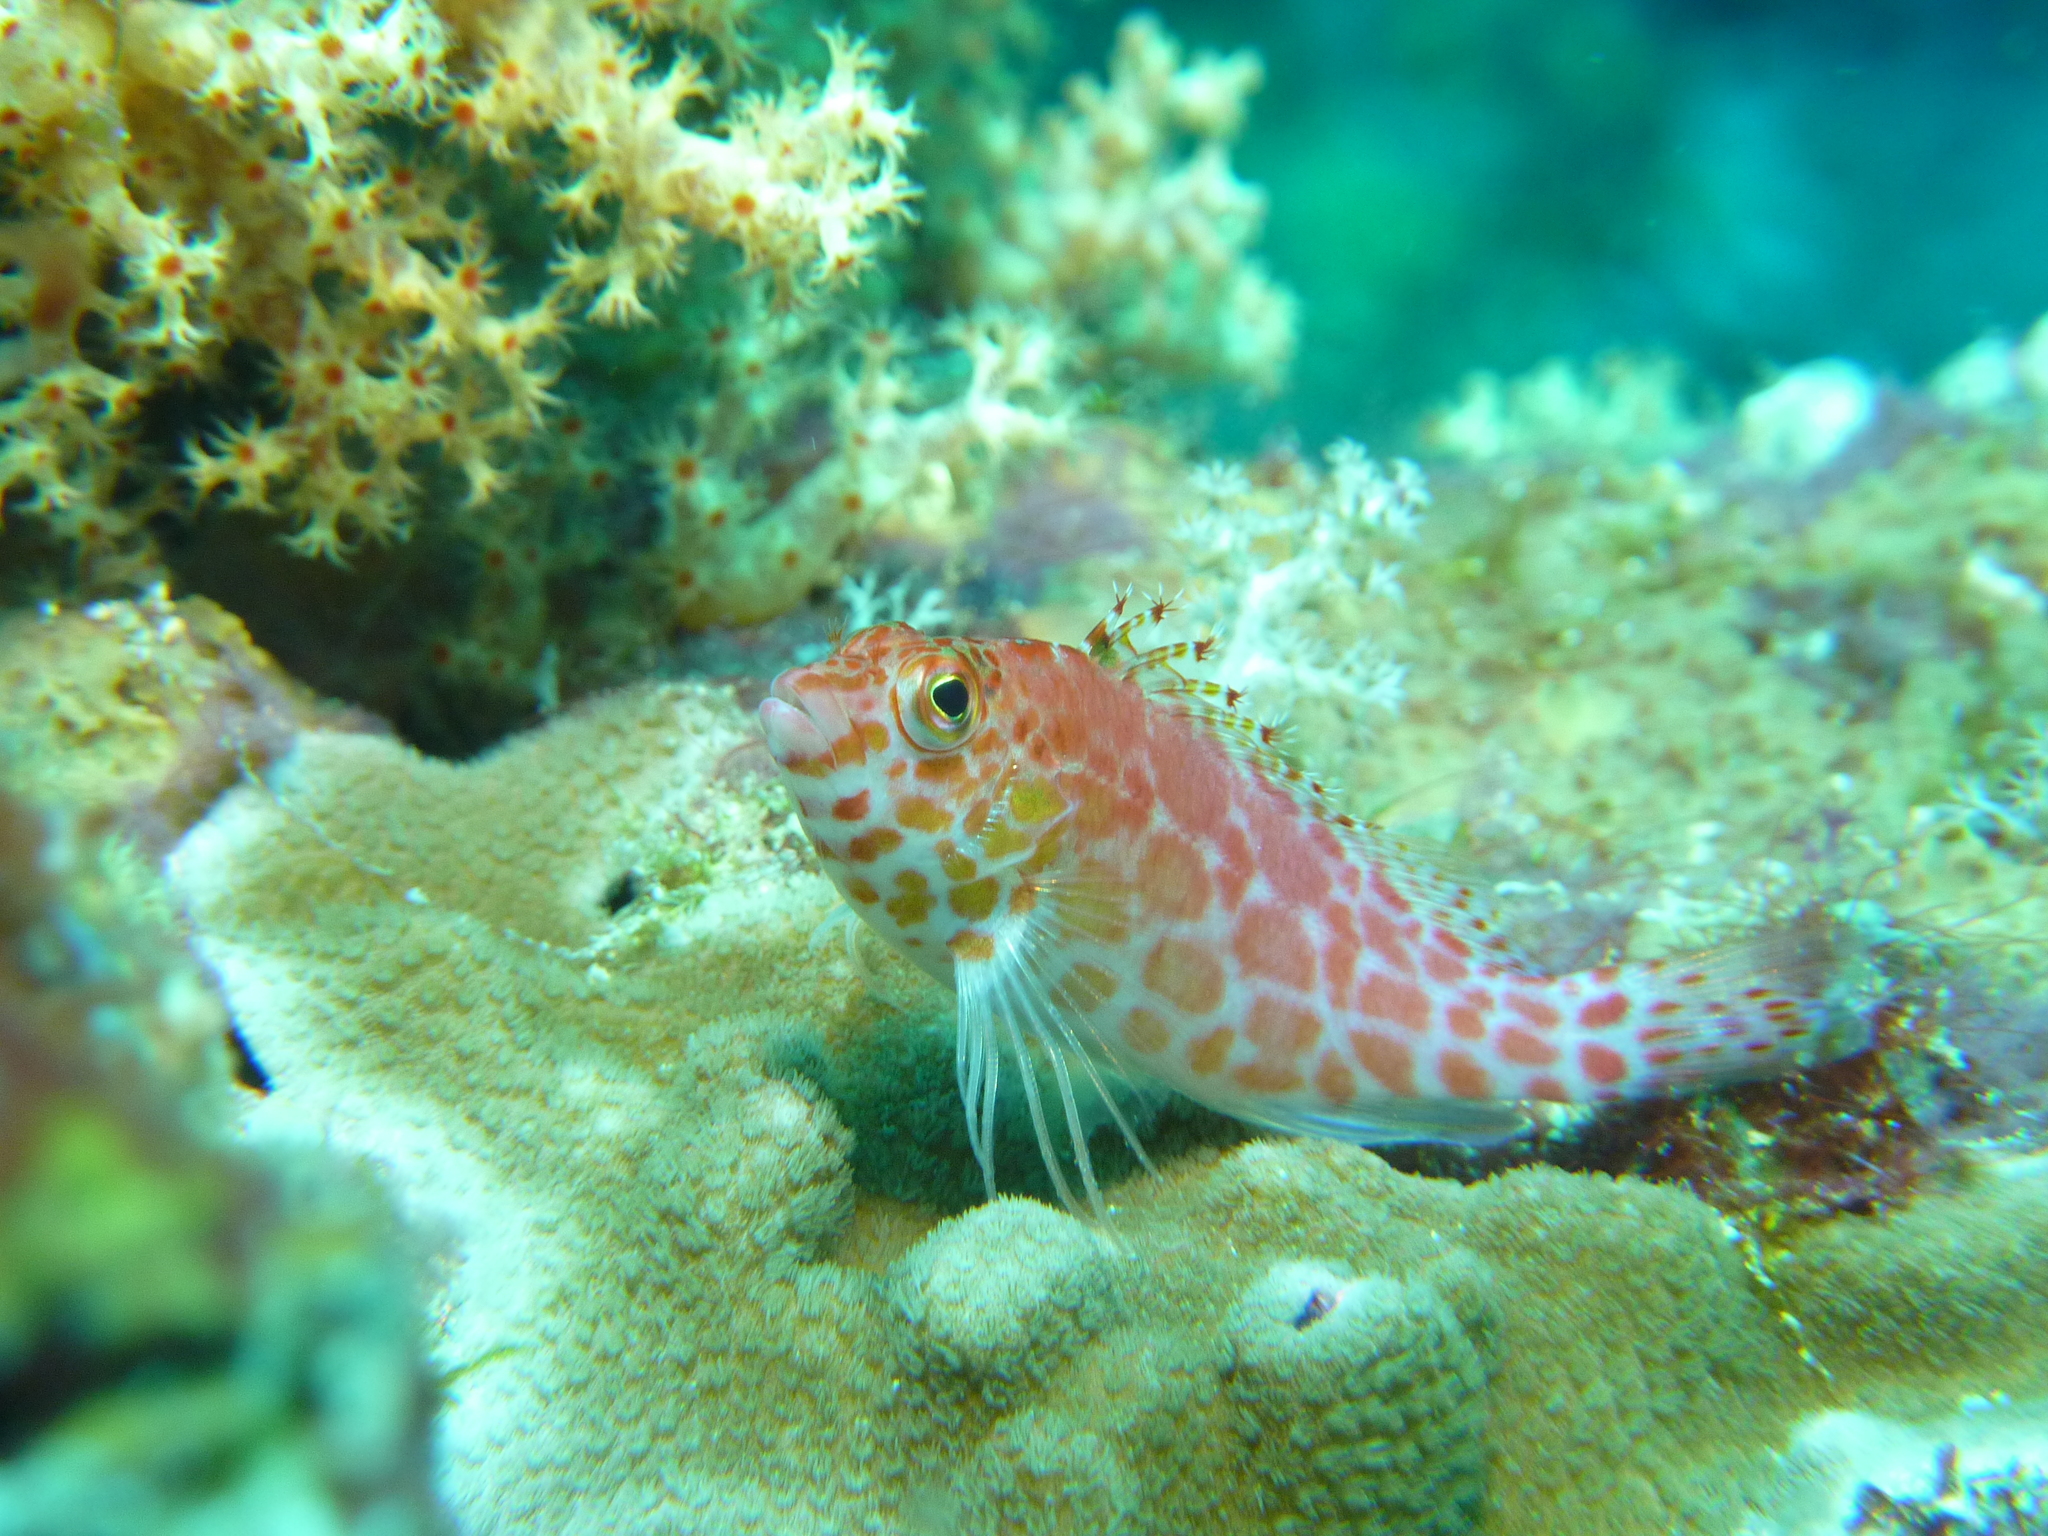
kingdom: Animalia
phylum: Chordata
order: Perciformes
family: Cirrhitidae
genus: Cirrhitichthys
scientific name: Cirrhitichthys oxycephalus
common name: Spotted hawkfish
